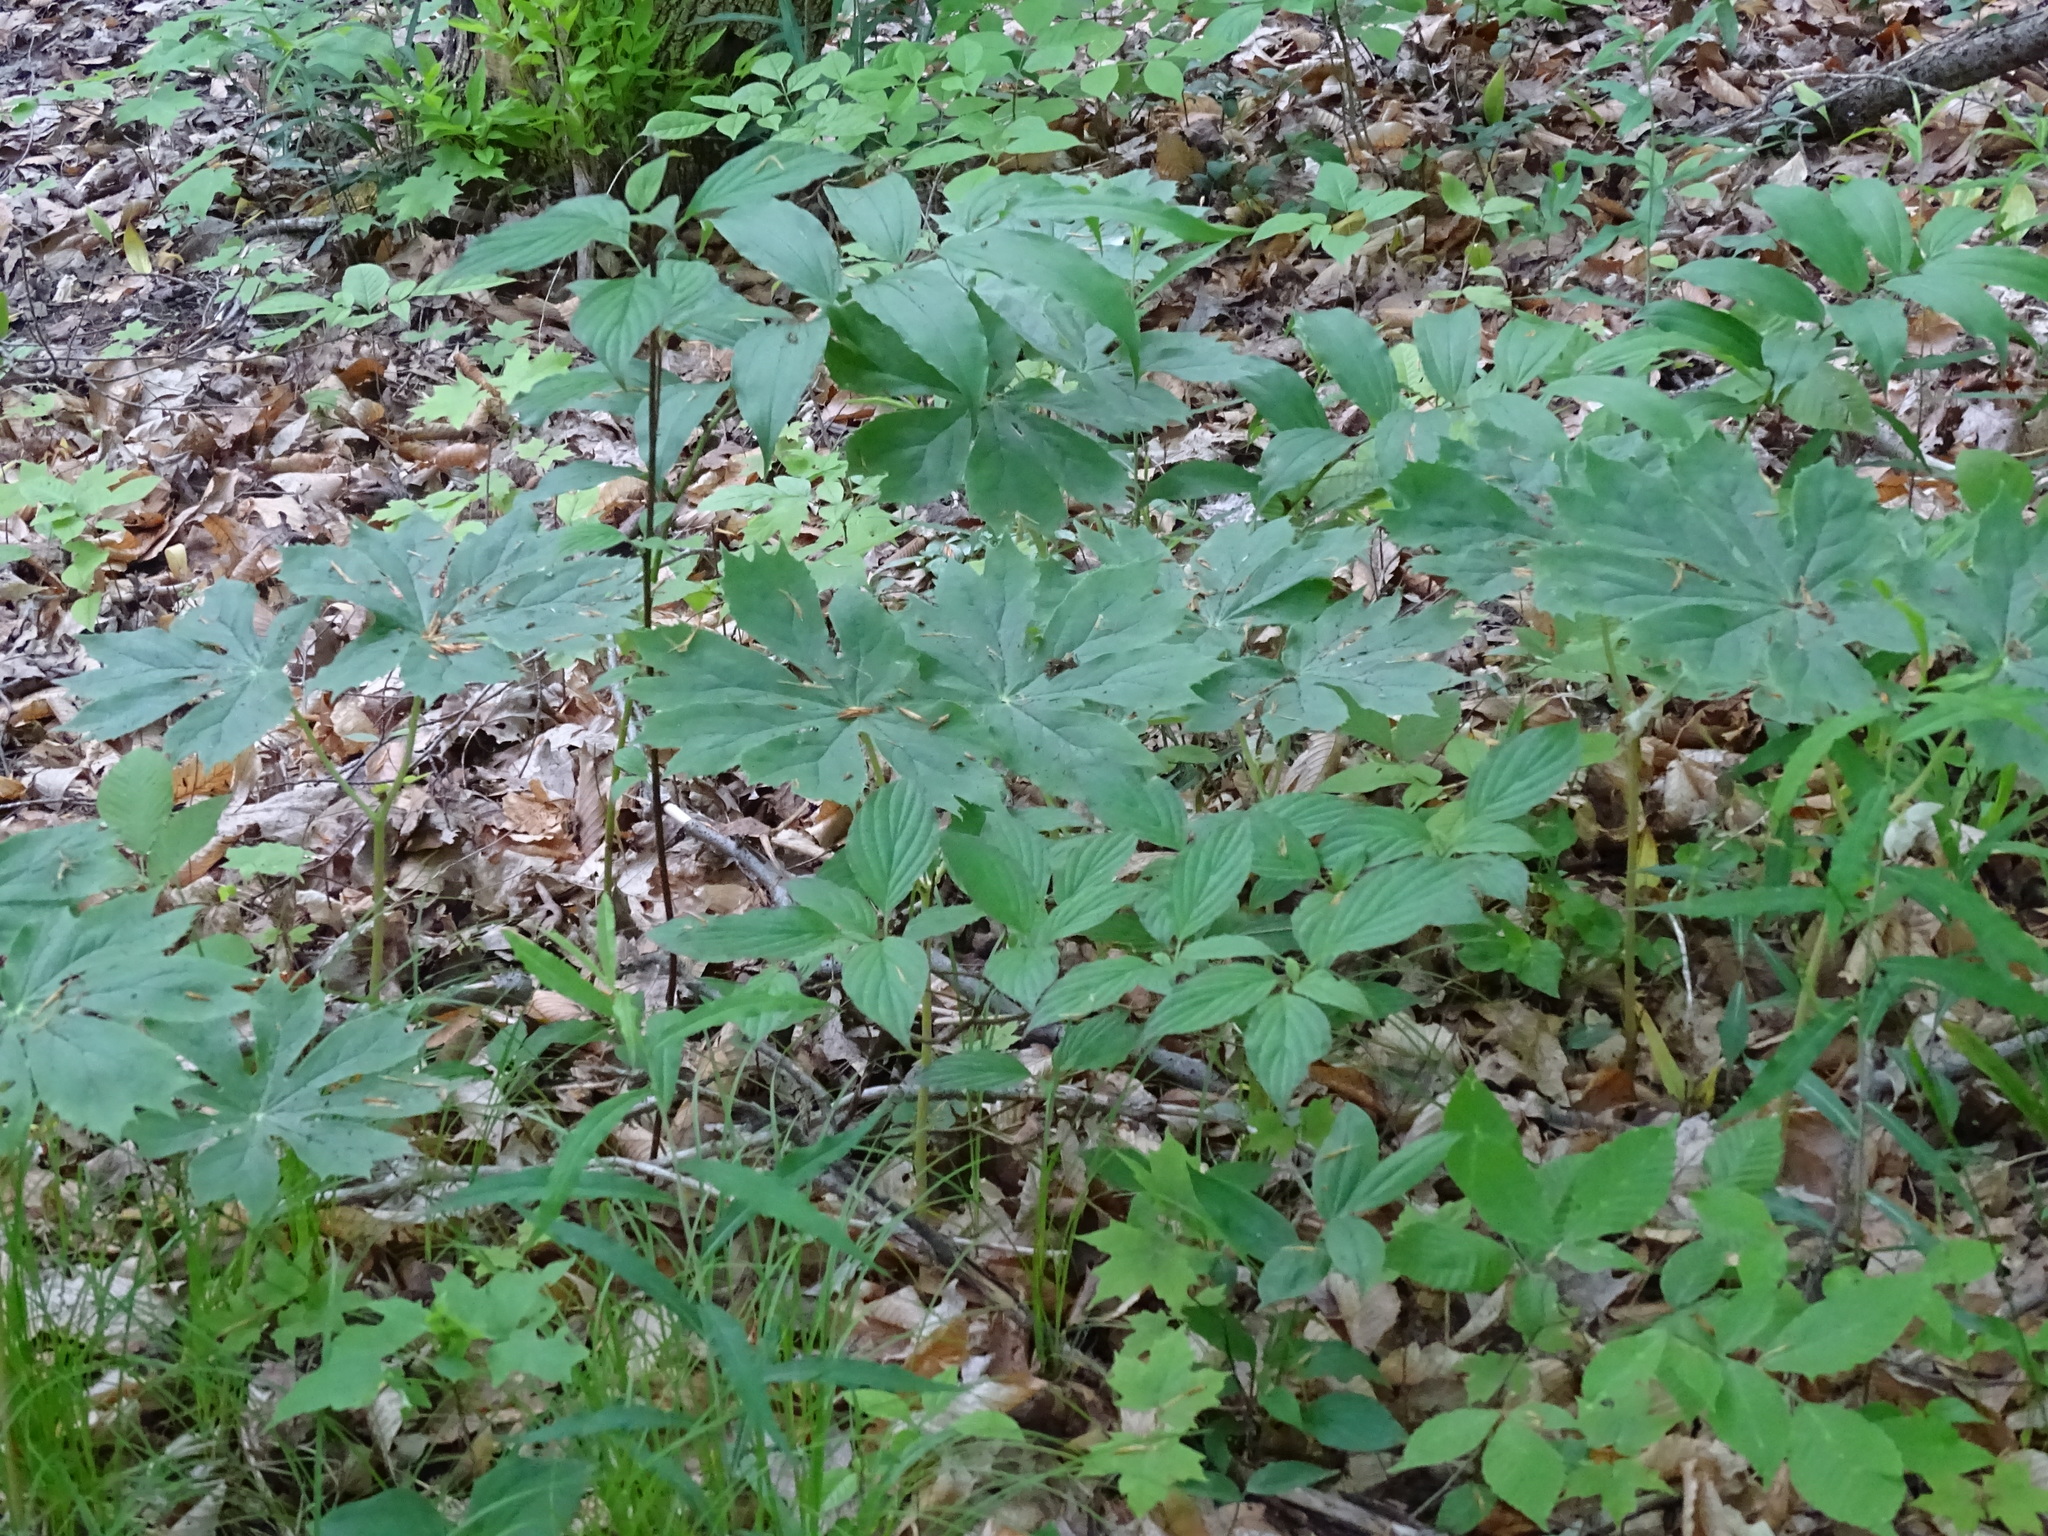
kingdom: Plantae
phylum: Tracheophyta
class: Magnoliopsida
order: Ranunculales
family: Berberidaceae
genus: Podophyllum
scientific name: Podophyllum peltatum
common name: Wild mandrake
